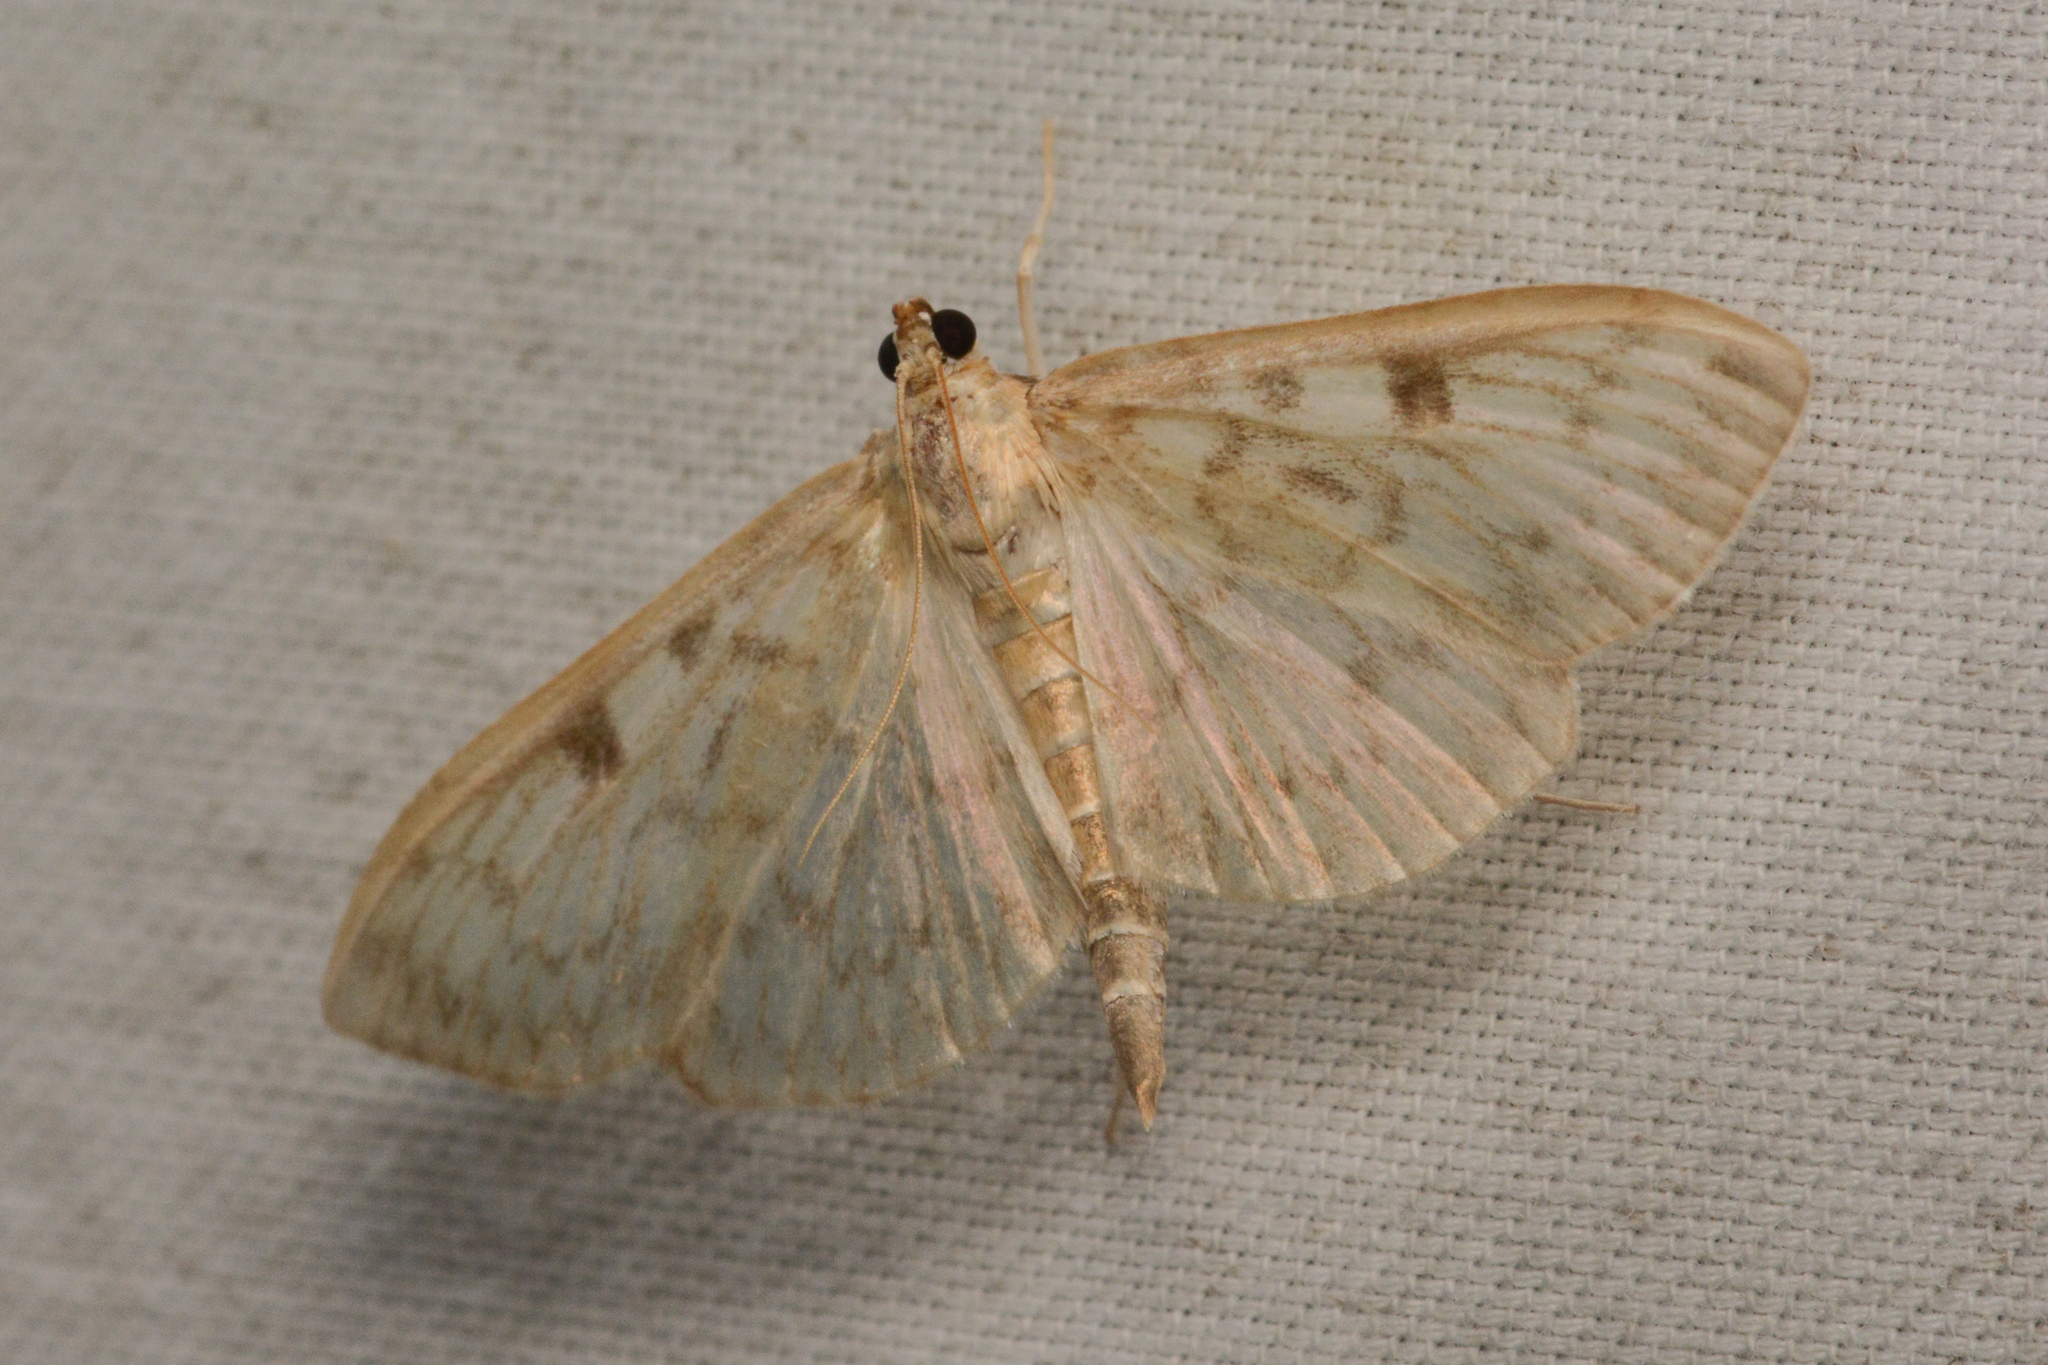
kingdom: Animalia
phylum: Arthropoda
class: Insecta
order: Lepidoptera
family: Crambidae
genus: Herpetogramma
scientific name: Herpetogramma aquilonalis
